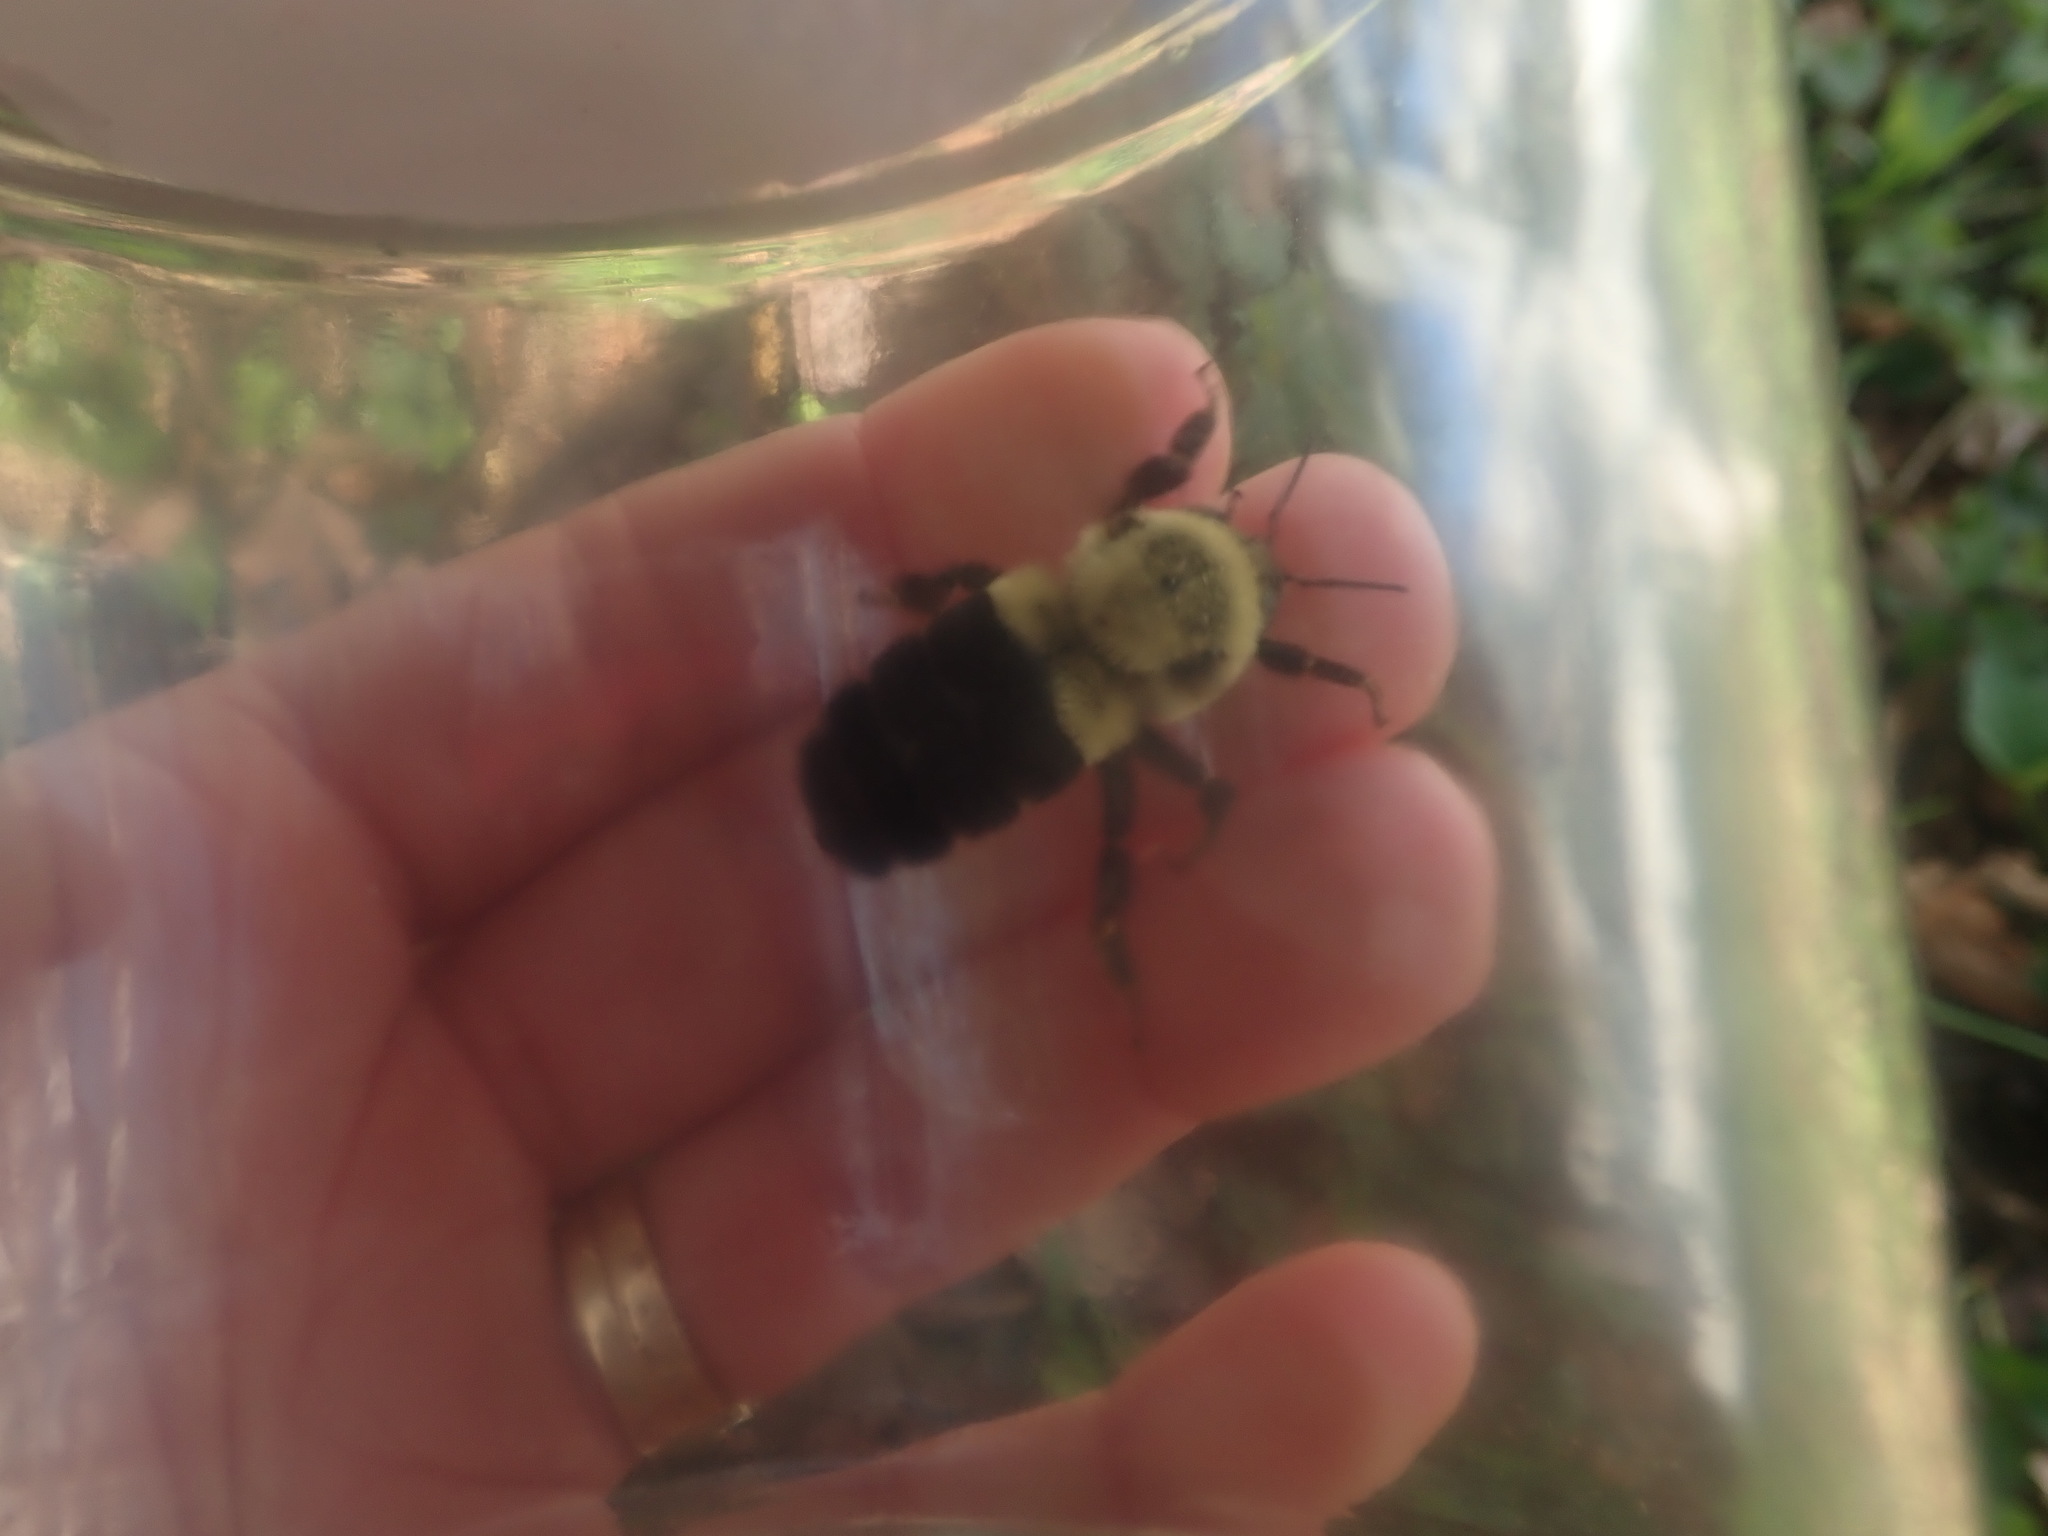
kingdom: Animalia
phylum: Arthropoda
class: Insecta
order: Hymenoptera
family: Apidae
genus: Bombus
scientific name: Bombus impatiens
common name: Common eastern bumble bee
